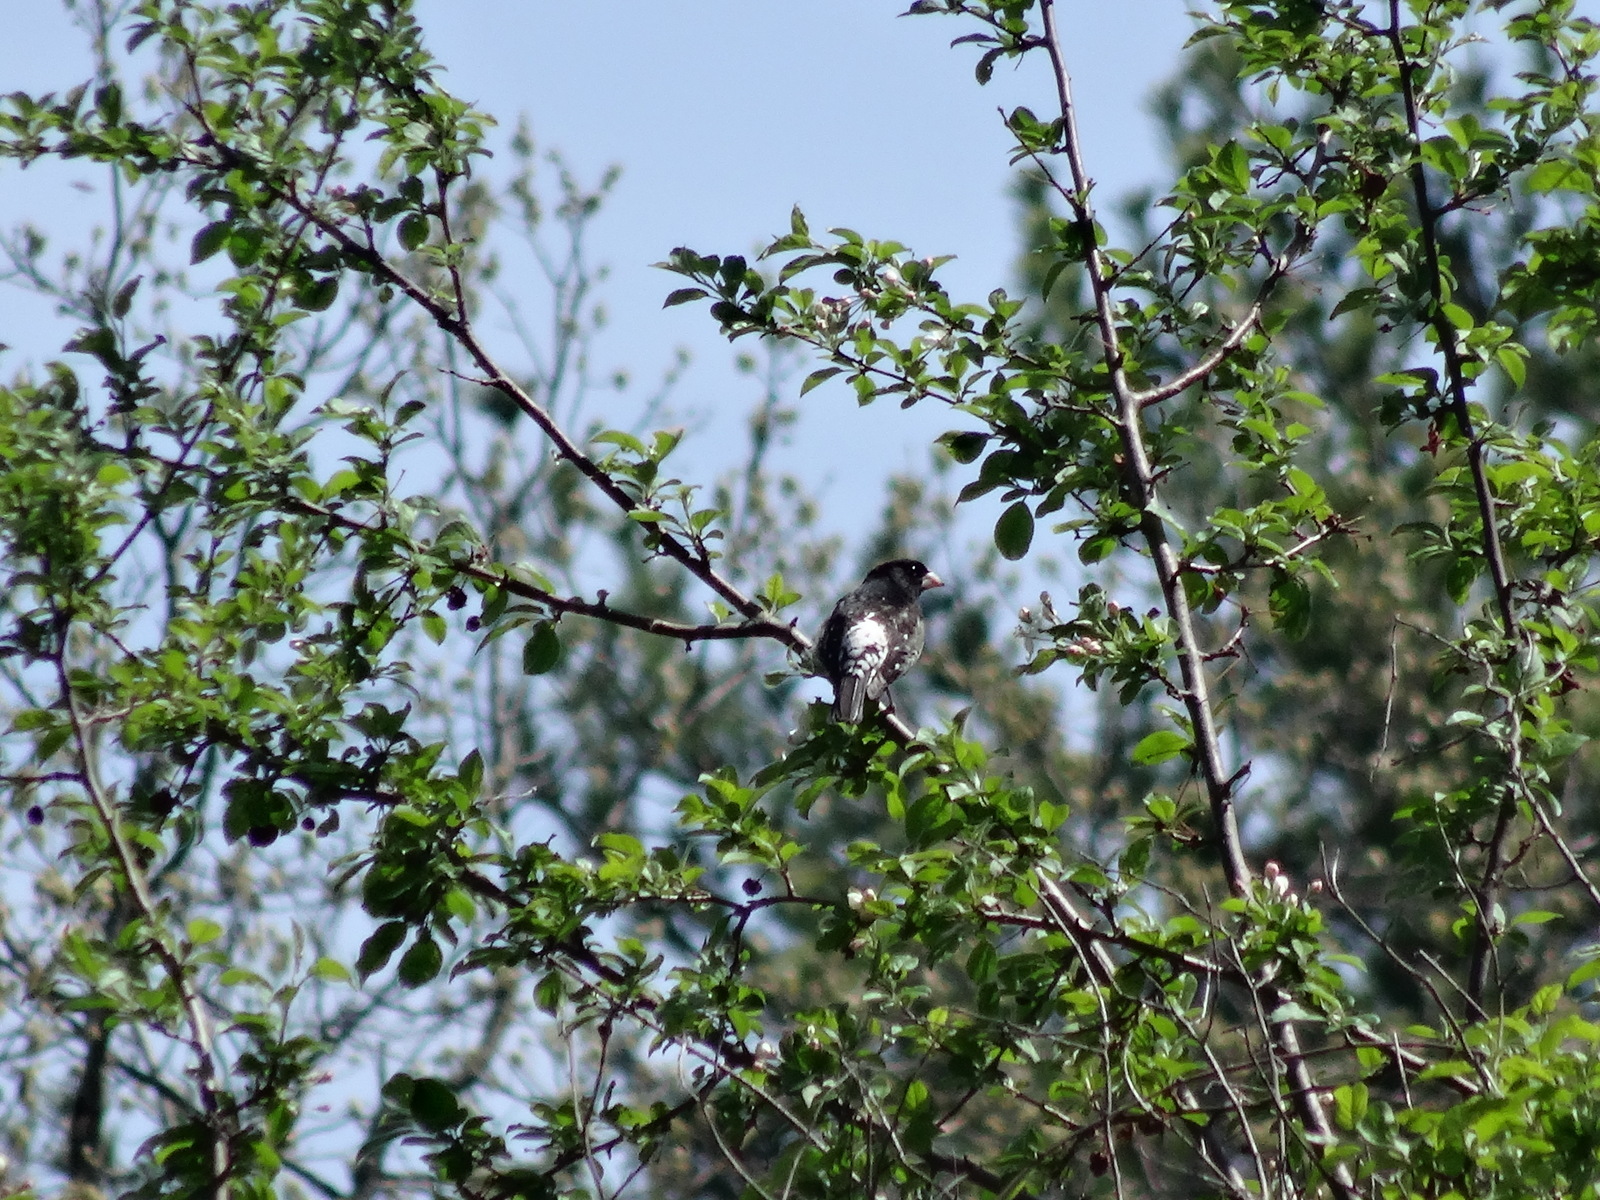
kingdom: Animalia
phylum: Chordata
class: Aves
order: Passeriformes
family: Cardinalidae
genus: Pheucticus
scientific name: Pheucticus ludovicianus
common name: Rose-breasted grosbeak
